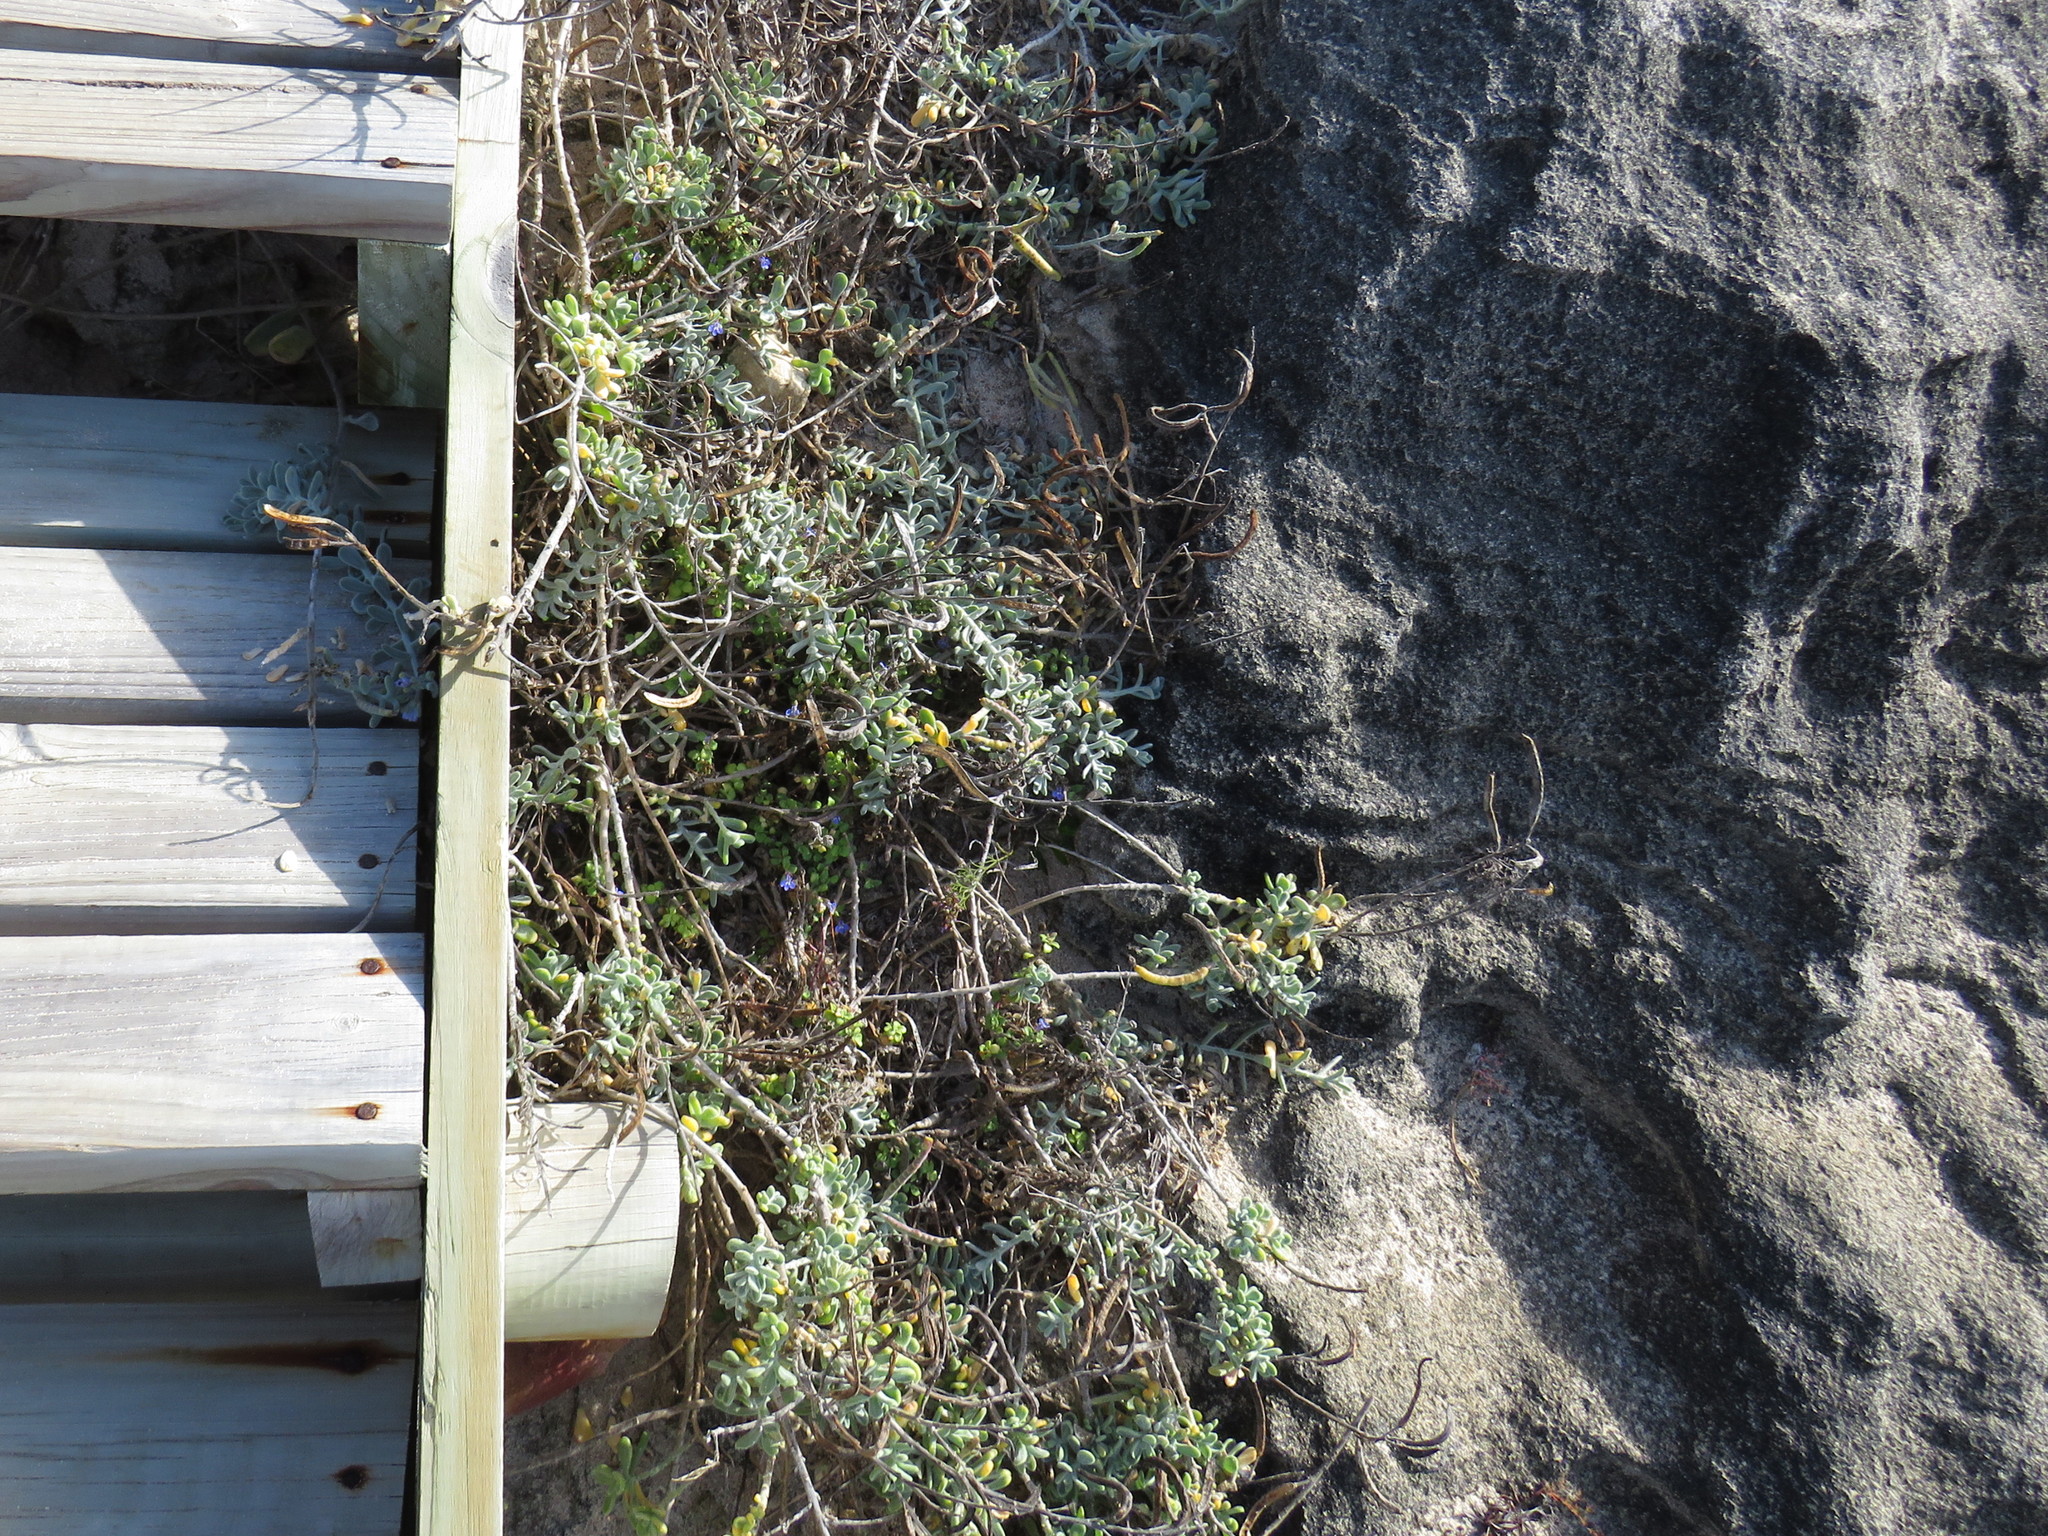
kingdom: Plantae
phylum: Tracheophyta
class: Magnoliopsida
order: Asterales
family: Campanulaceae
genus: Lobelia
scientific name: Lobelia boivinii
